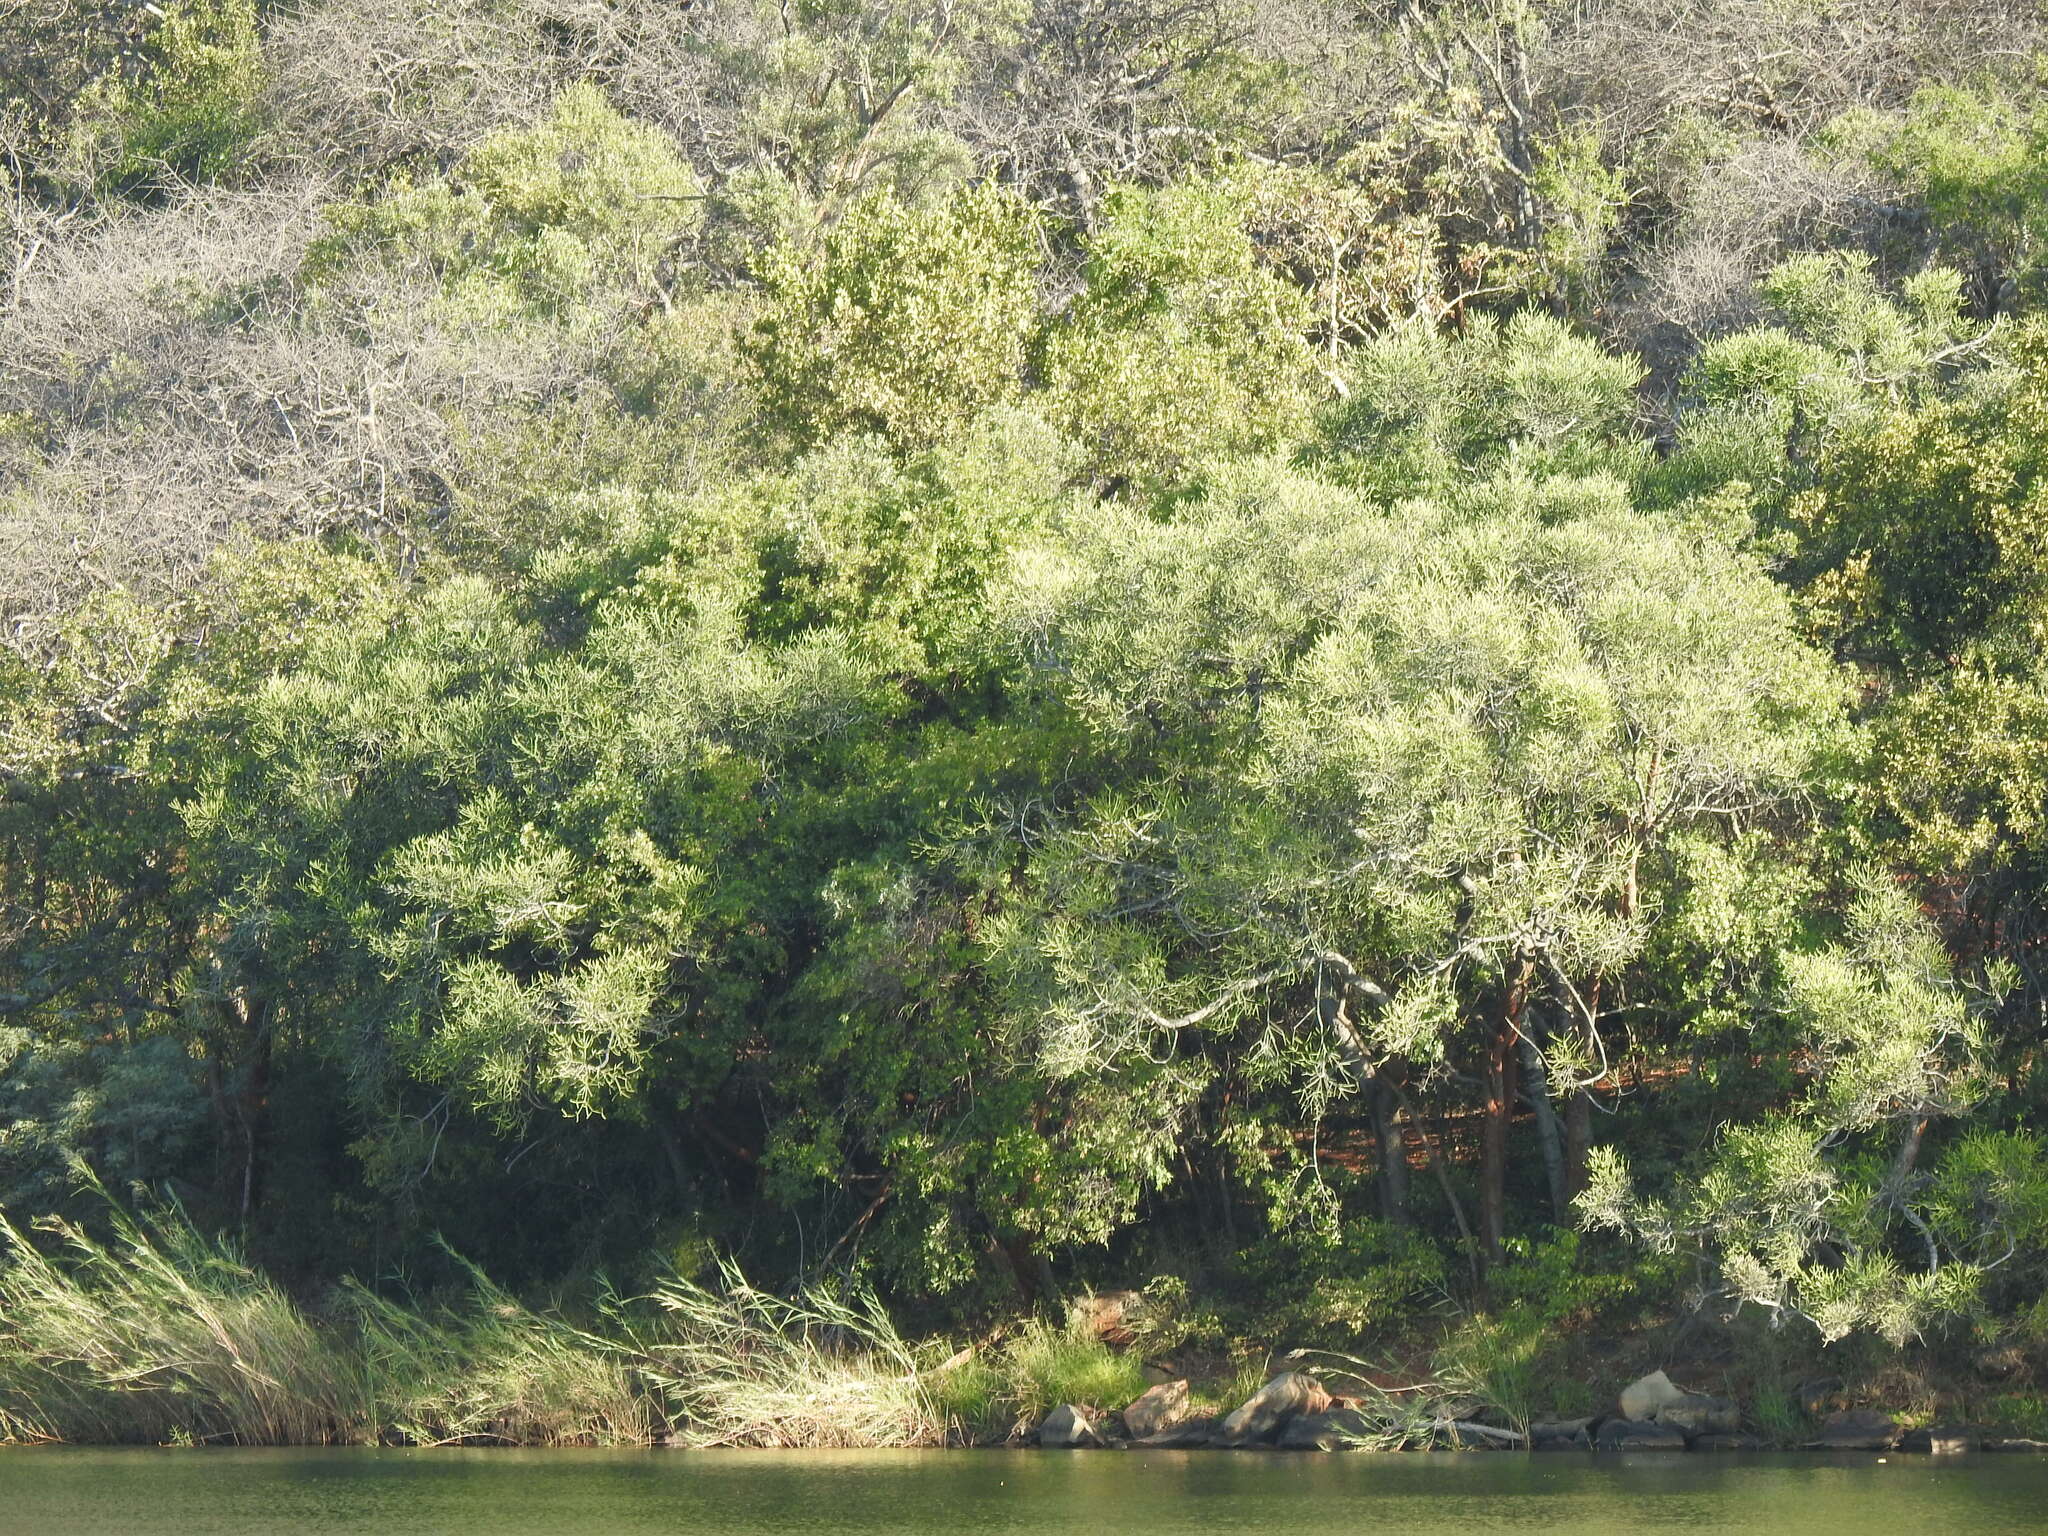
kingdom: Plantae
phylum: Tracheophyta
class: Magnoliopsida
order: Malpighiales
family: Euphorbiaceae
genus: Euphorbia
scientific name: Euphorbia tirucalli
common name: Indiantree spurge
